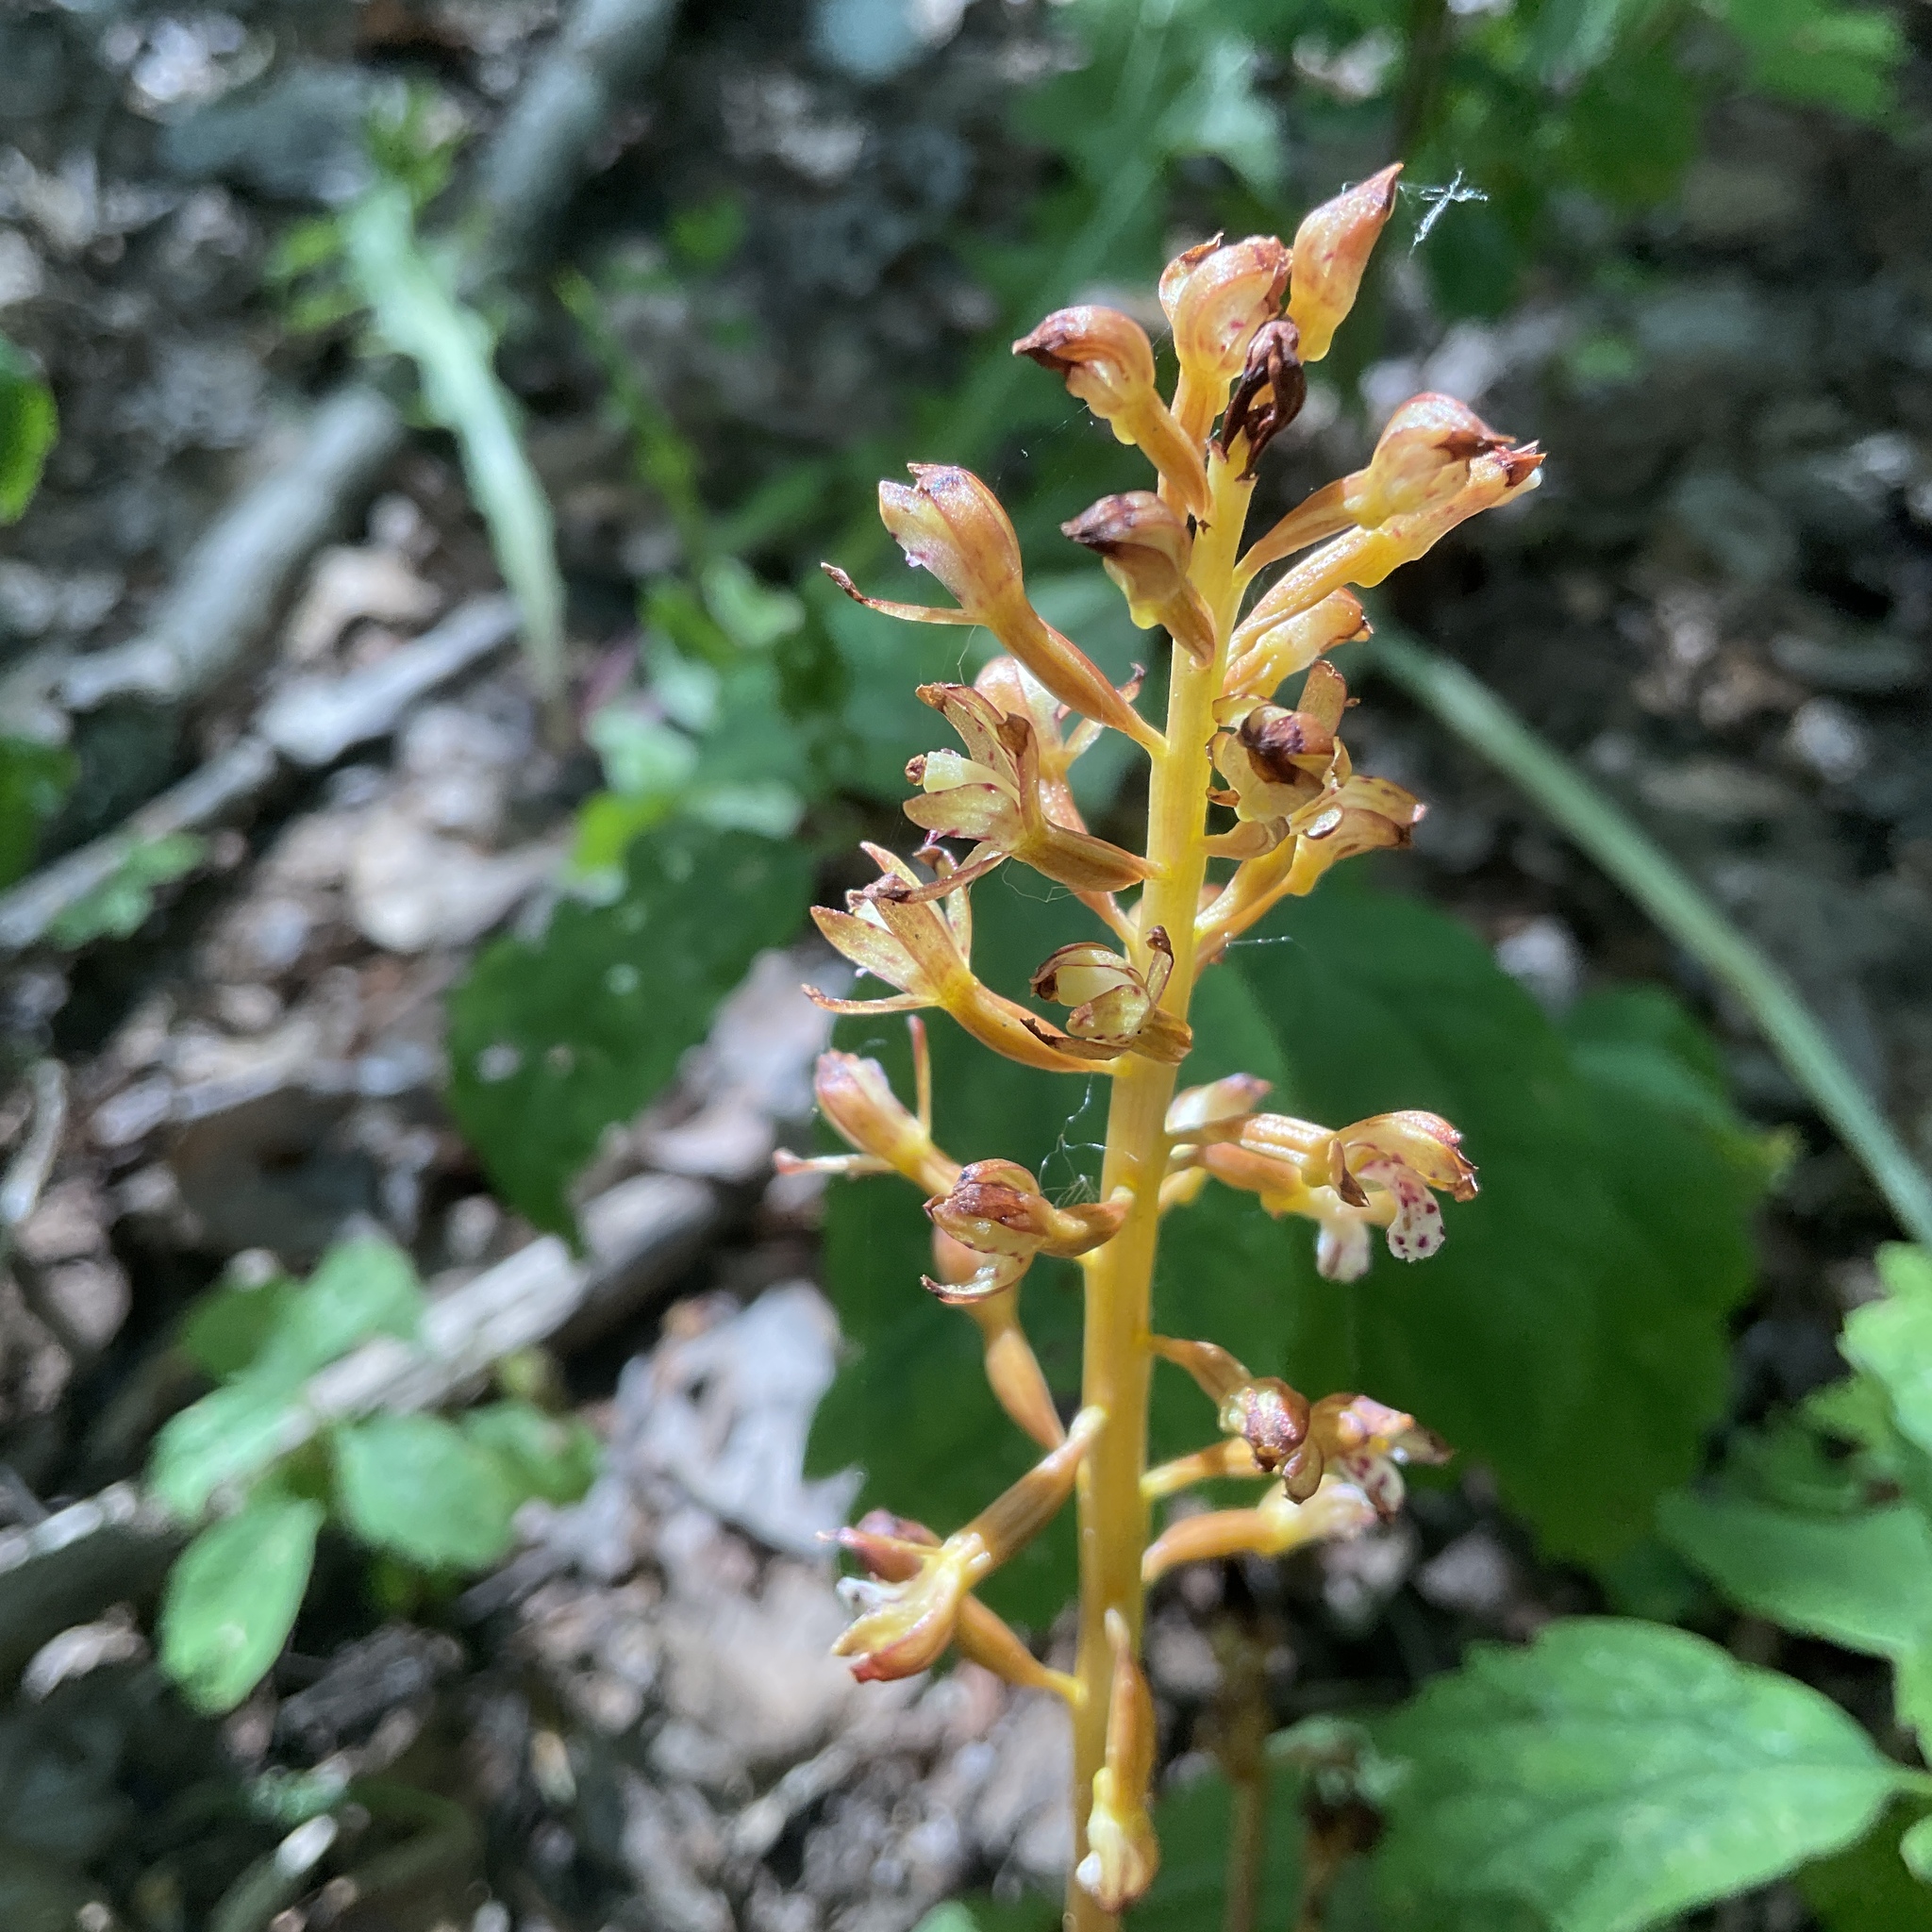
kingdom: Plantae
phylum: Tracheophyta
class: Liliopsida
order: Asparagales
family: Orchidaceae
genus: Corallorhiza
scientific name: Corallorhiza maculata
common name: Spotted coralroot
